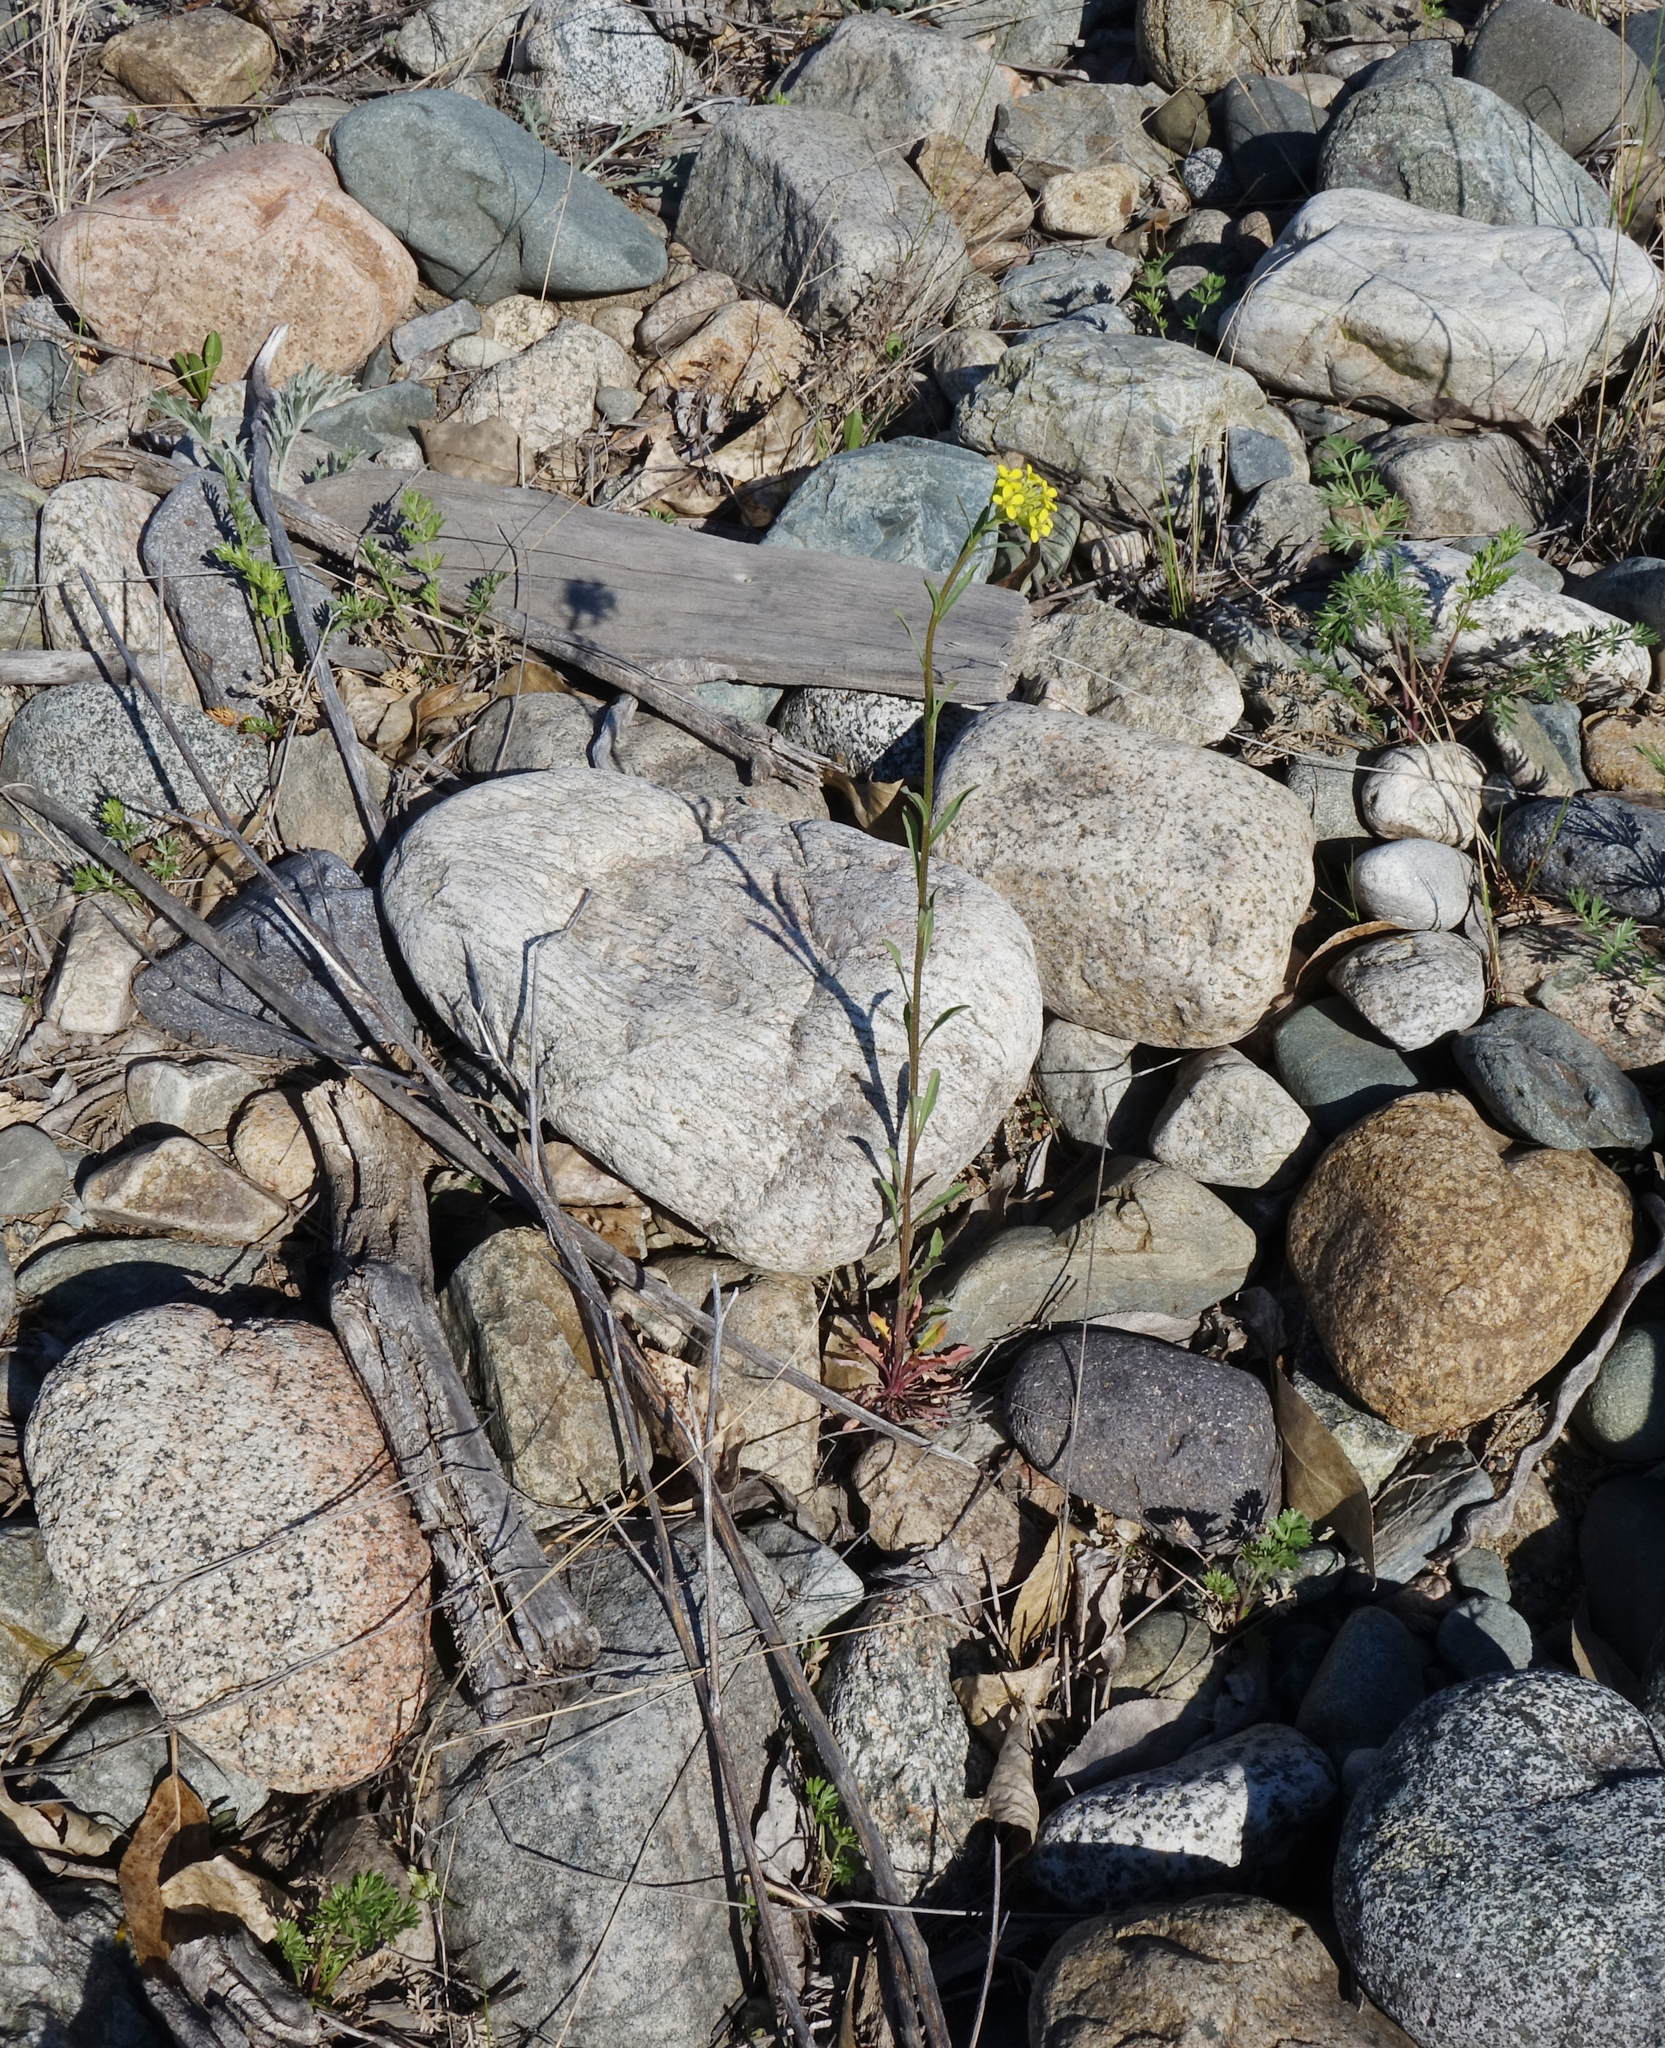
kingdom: Plantae
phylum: Tracheophyta
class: Magnoliopsida
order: Brassicales
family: Brassicaceae
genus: Erysimum
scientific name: Erysimum hieraciifolium
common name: European wallflower
